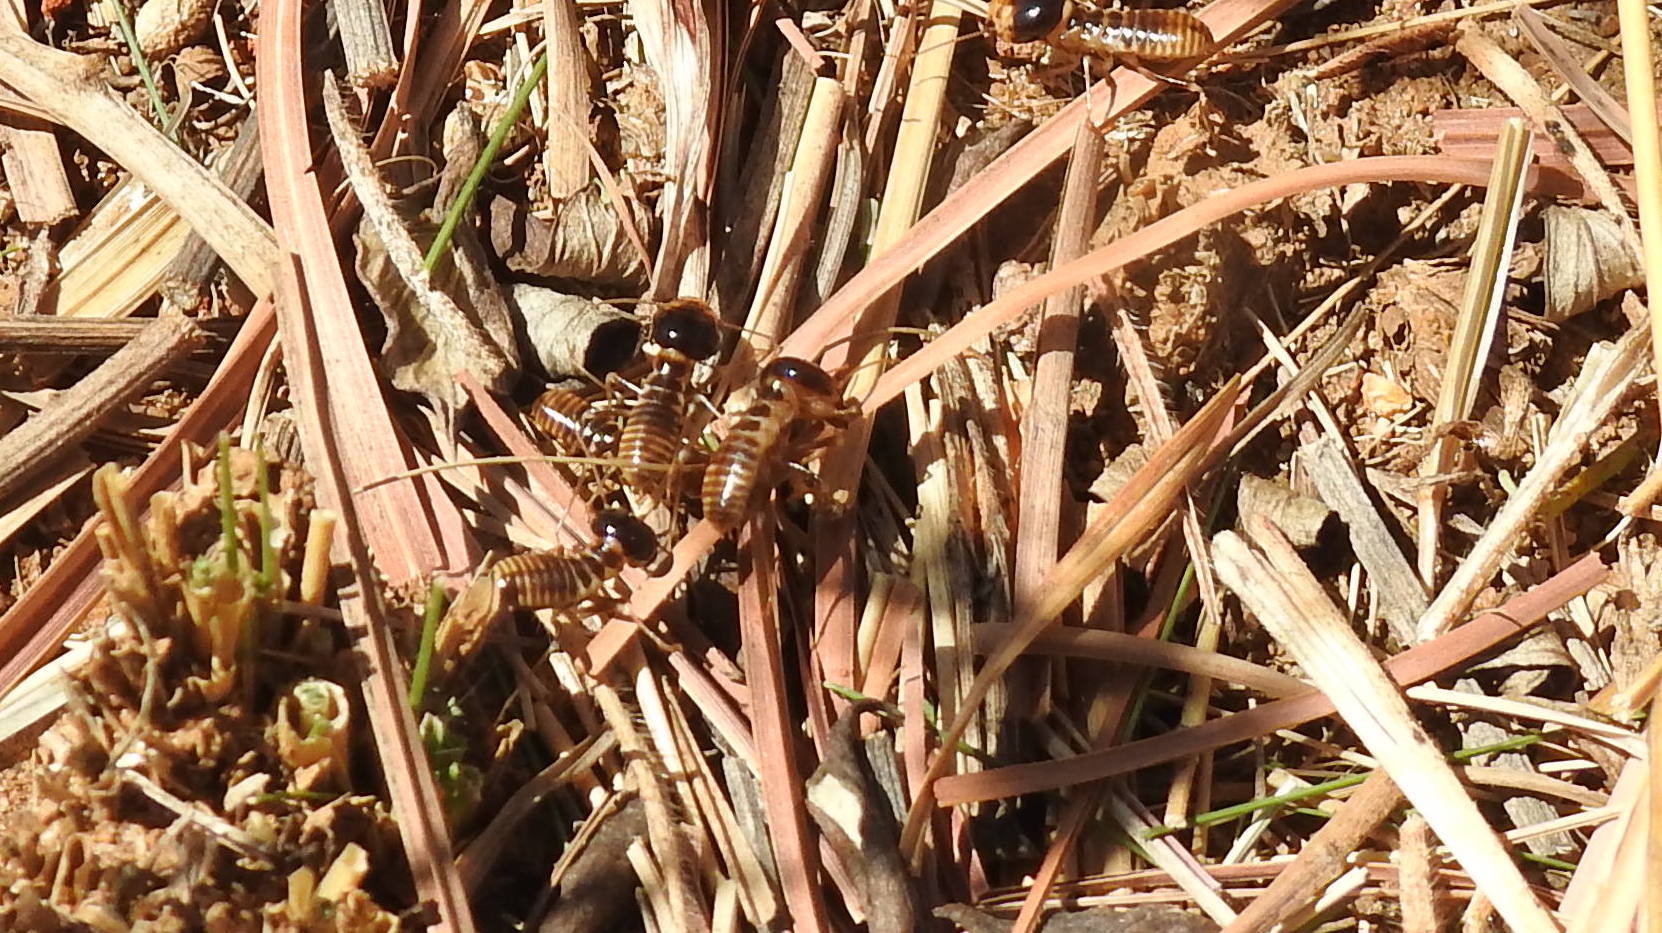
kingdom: Animalia
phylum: Arthropoda
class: Insecta
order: Blattodea
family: Hodotermitidae
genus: Hodotermes
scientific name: Hodotermes mossambicus
